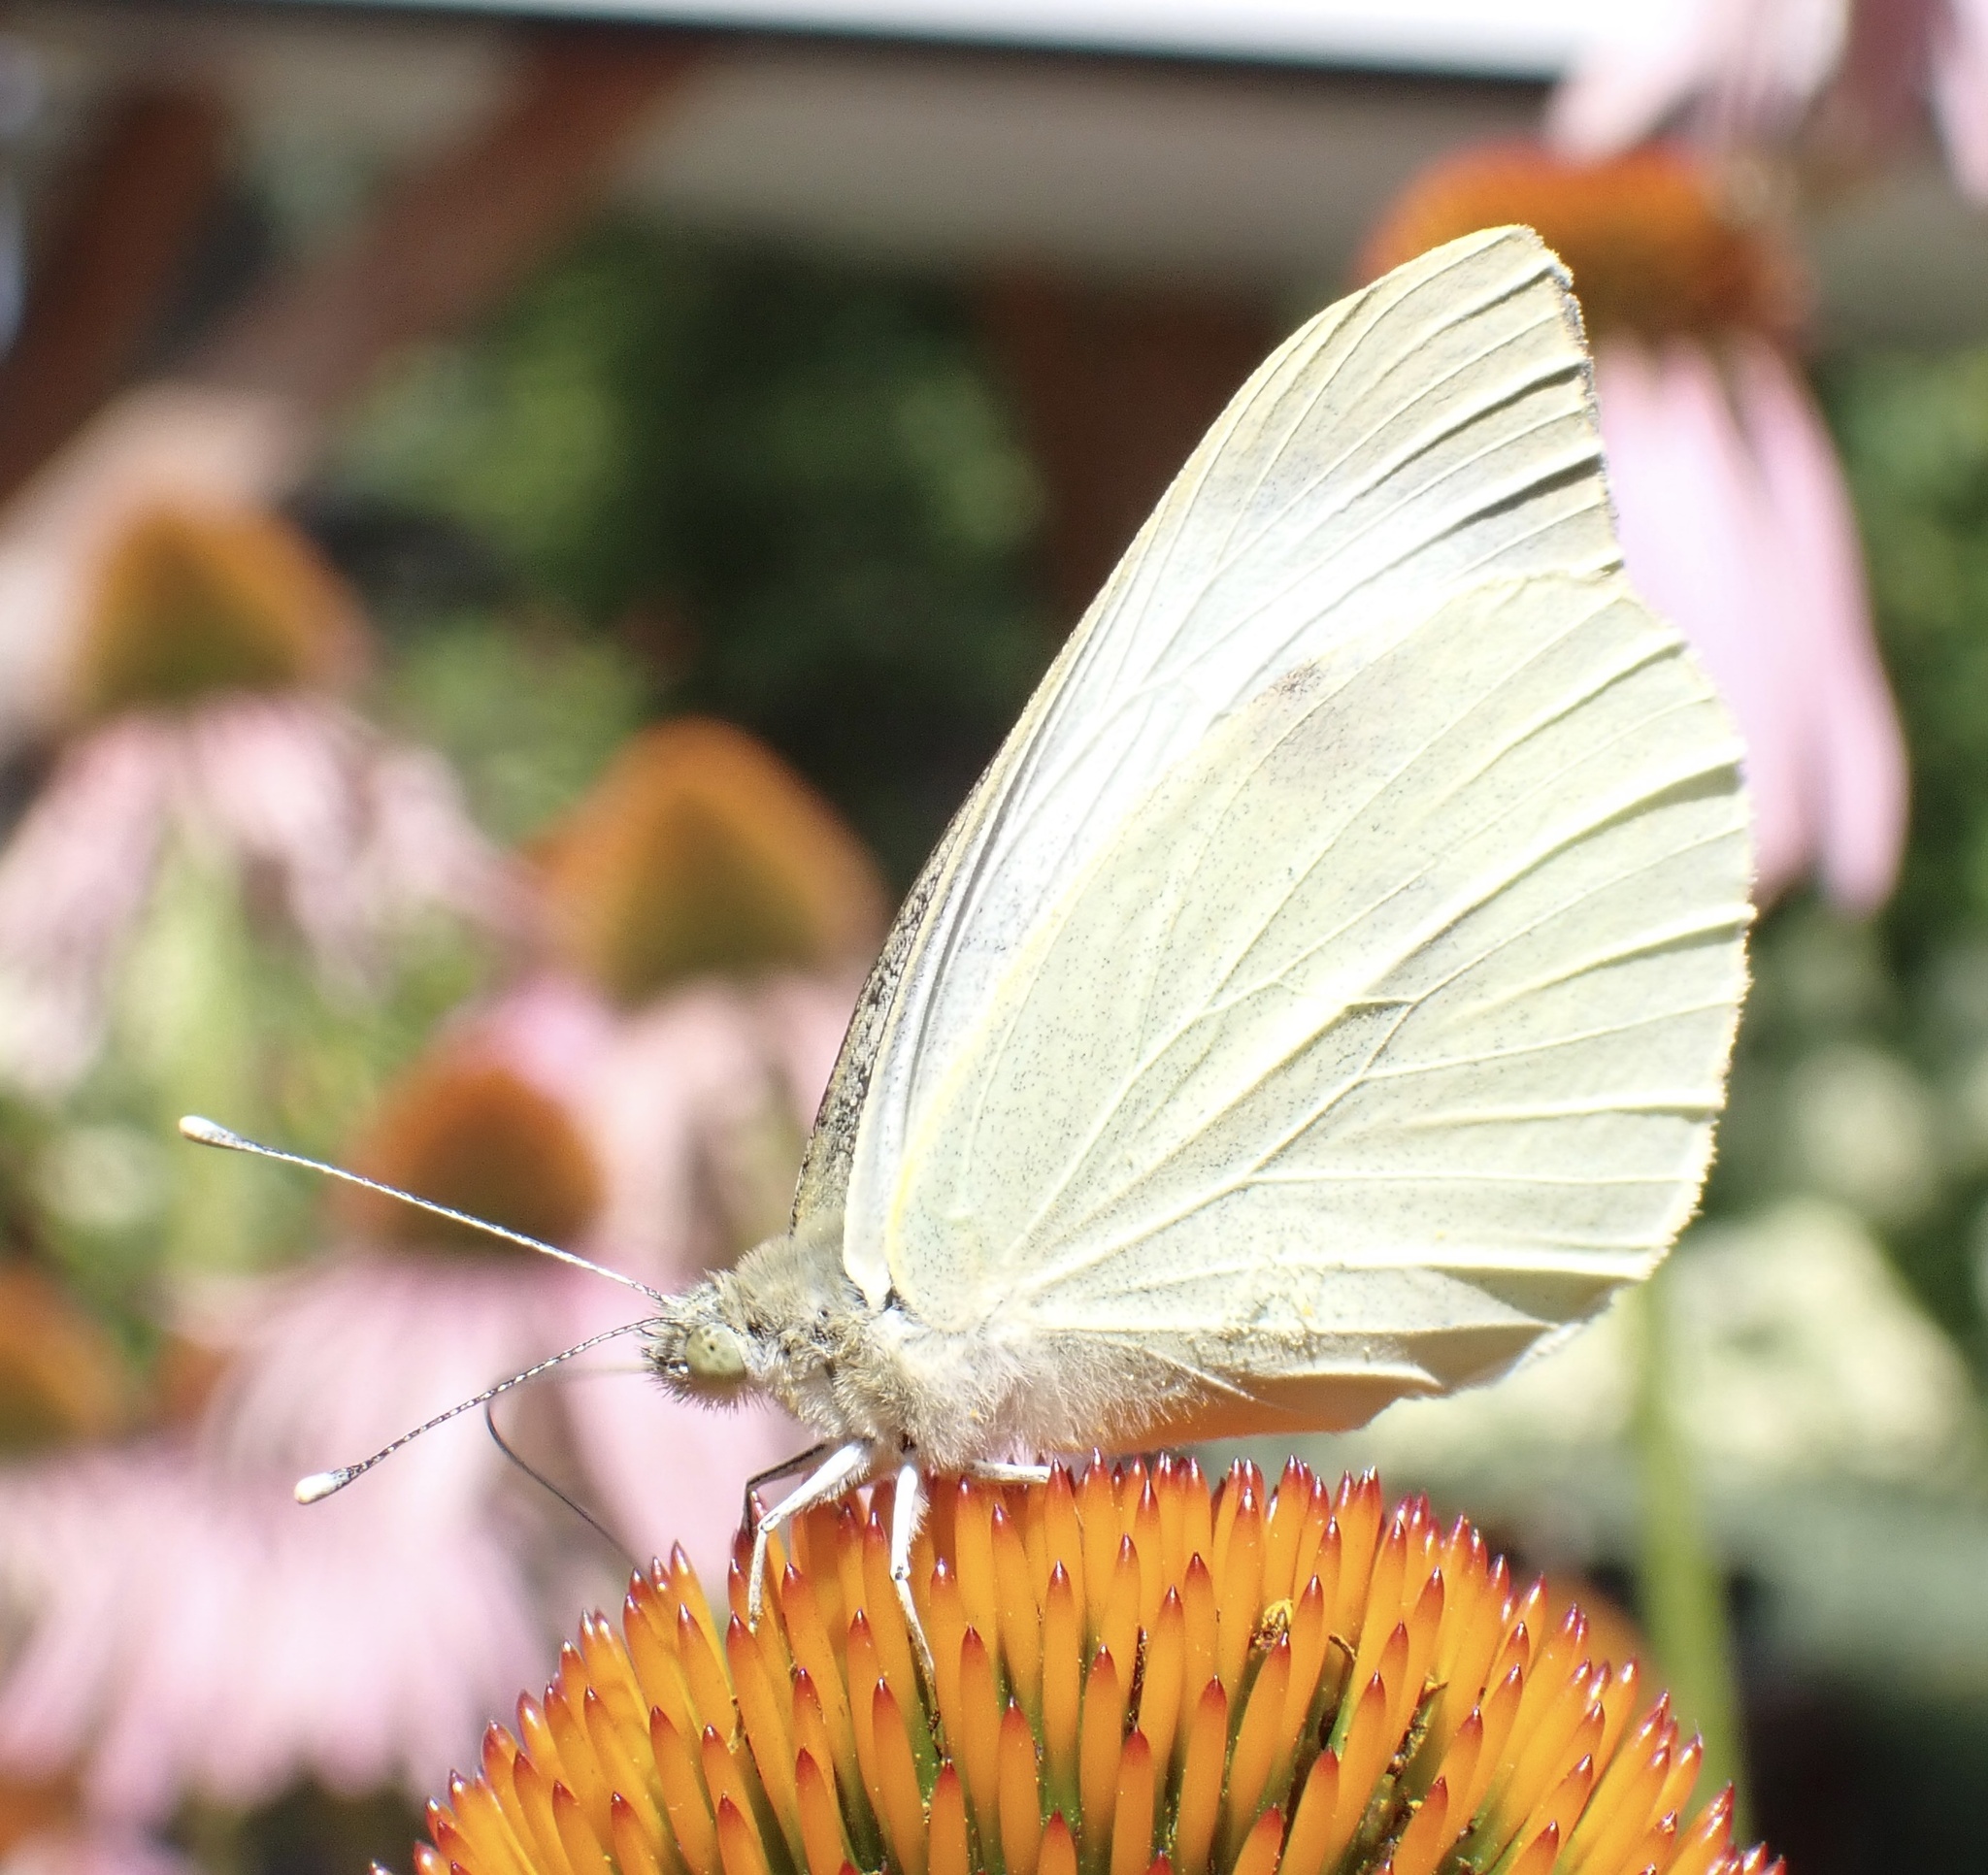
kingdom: Animalia
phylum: Arthropoda
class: Insecta
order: Lepidoptera
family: Pieridae
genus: Pieris
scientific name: Pieris brassicae
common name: Large white
